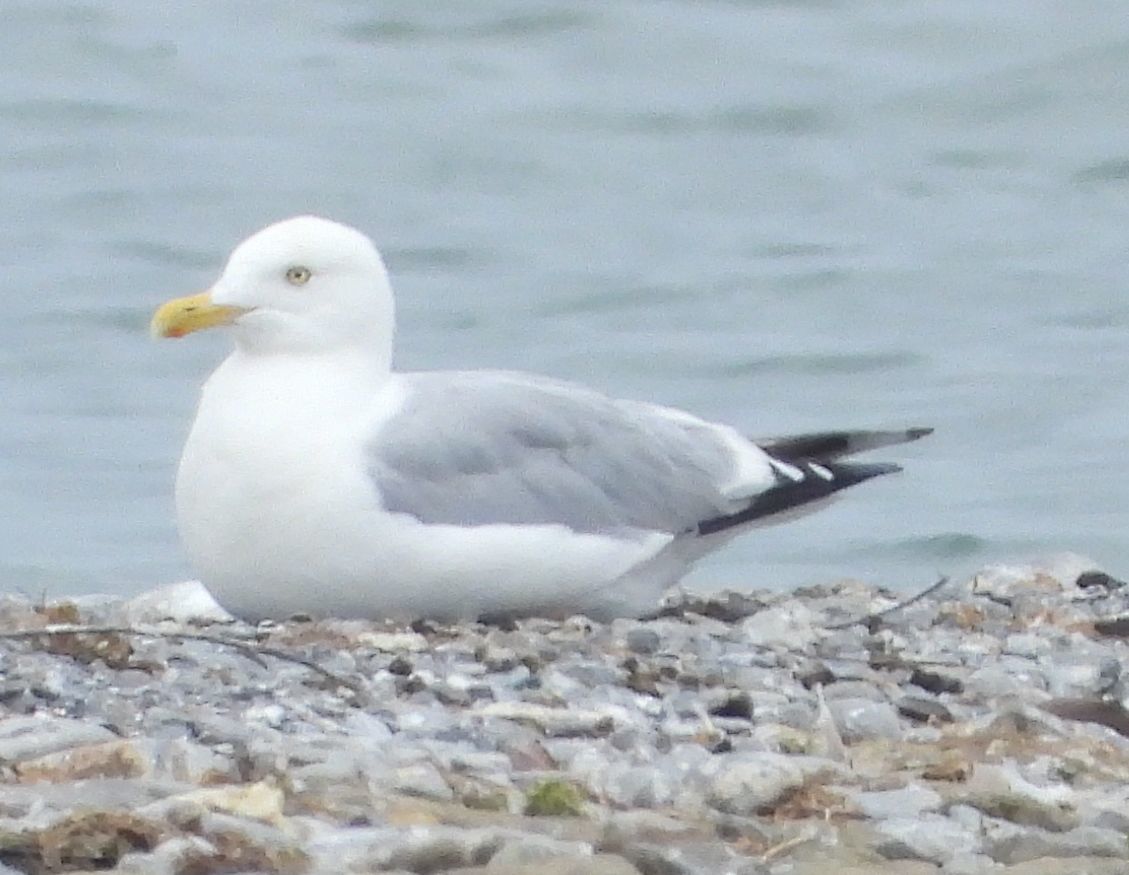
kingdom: Animalia
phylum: Chordata
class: Aves
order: Charadriiformes
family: Laridae
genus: Larus
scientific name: Larus argentatus
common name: Herring gull
